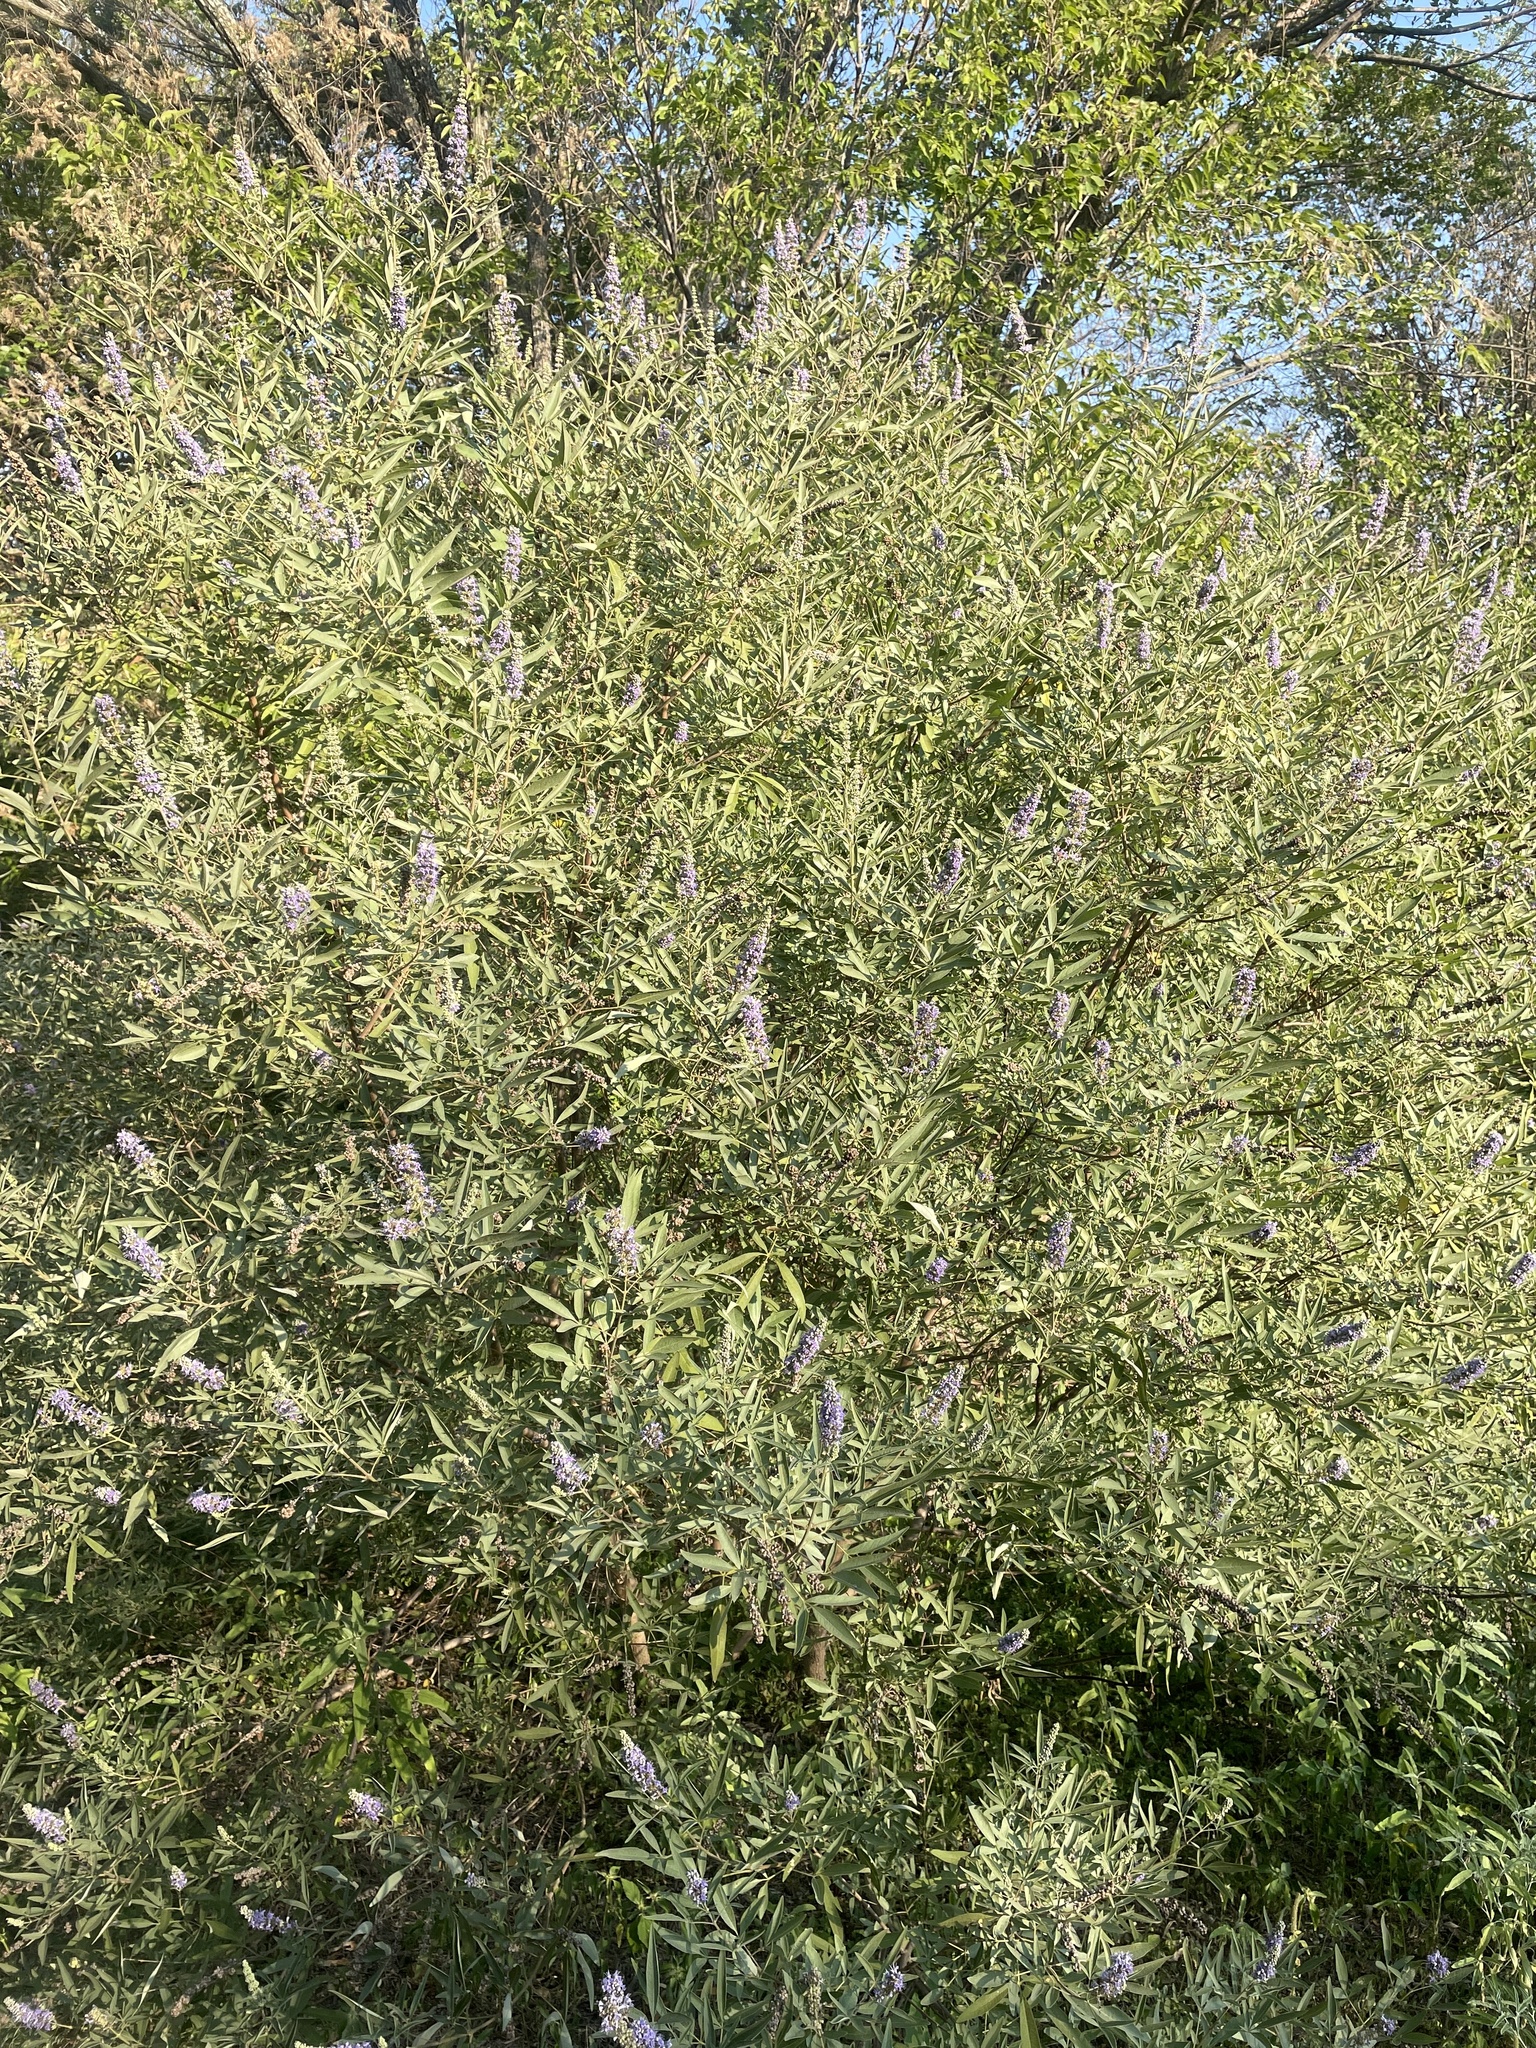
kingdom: Plantae
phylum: Tracheophyta
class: Magnoliopsida
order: Lamiales
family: Lamiaceae
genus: Vitex
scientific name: Vitex agnus-castus
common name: Chasteberry
